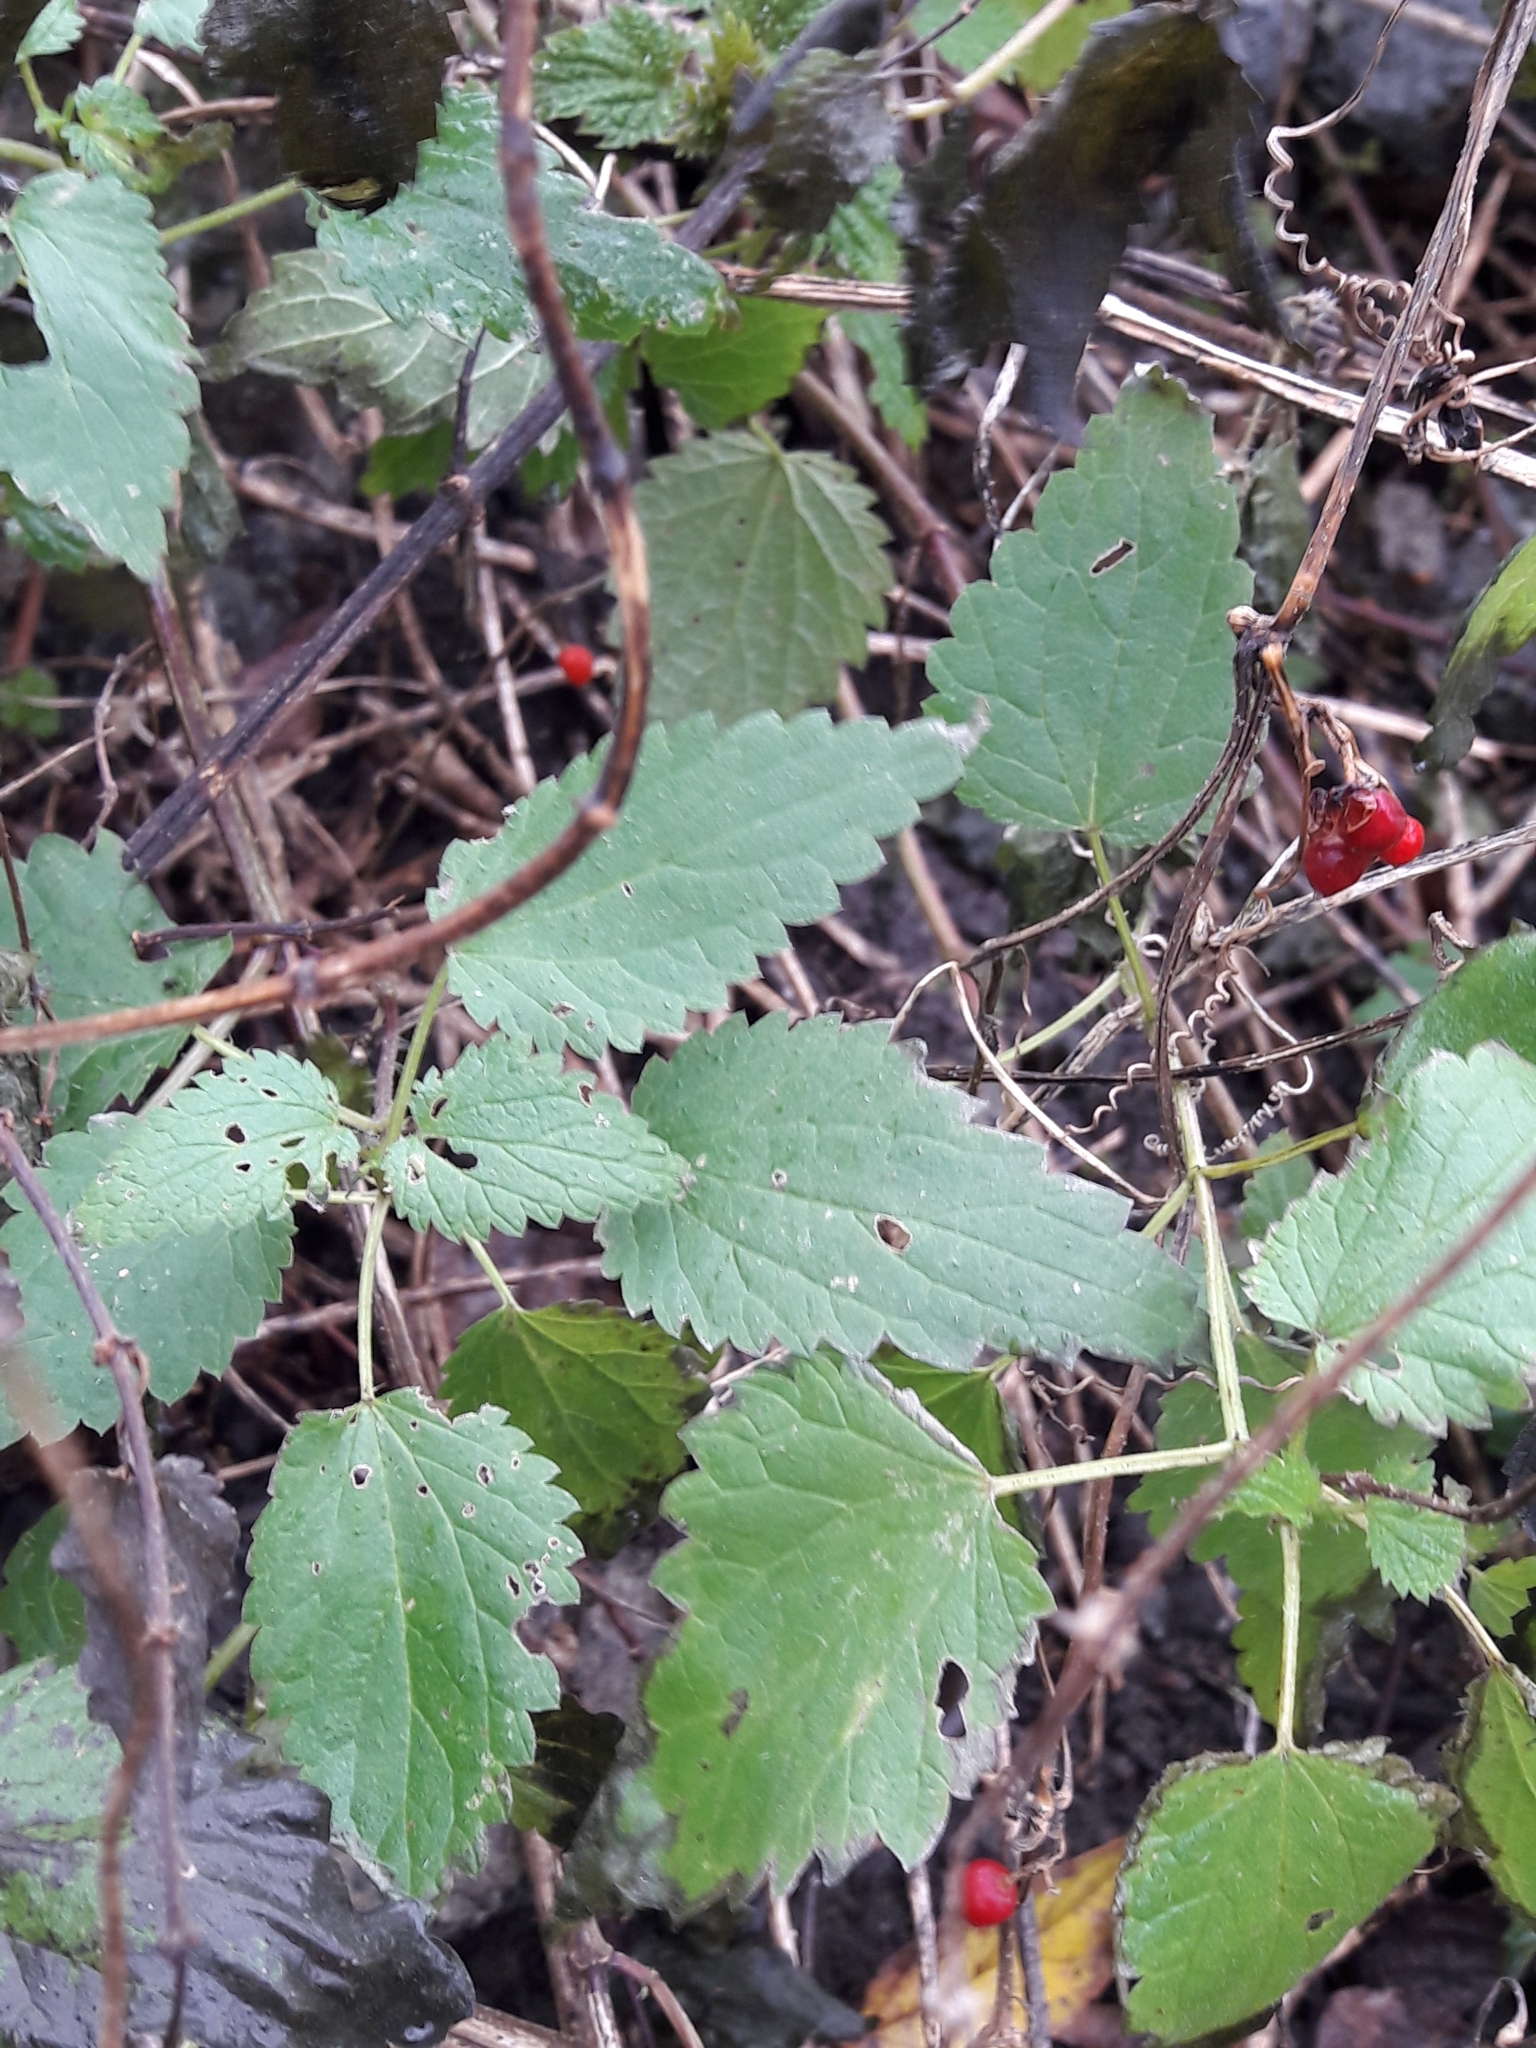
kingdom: Plantae
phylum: Tracheophyta
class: Magnoliopsida
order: Rosales
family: Urticaceae
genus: Urtica
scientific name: Urtica dioica
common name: Common nettle
